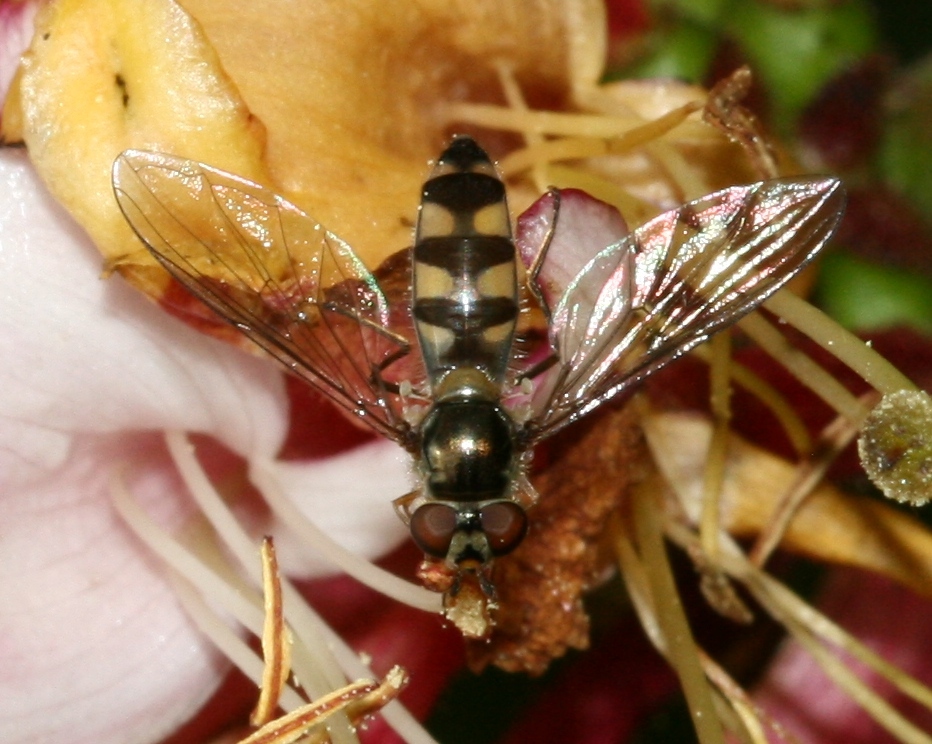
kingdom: Animalia
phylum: Arthropoda
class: Insecta
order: Diptera
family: Syrphidae
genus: Meliscaeva
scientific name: Meliscaeva auricollis
